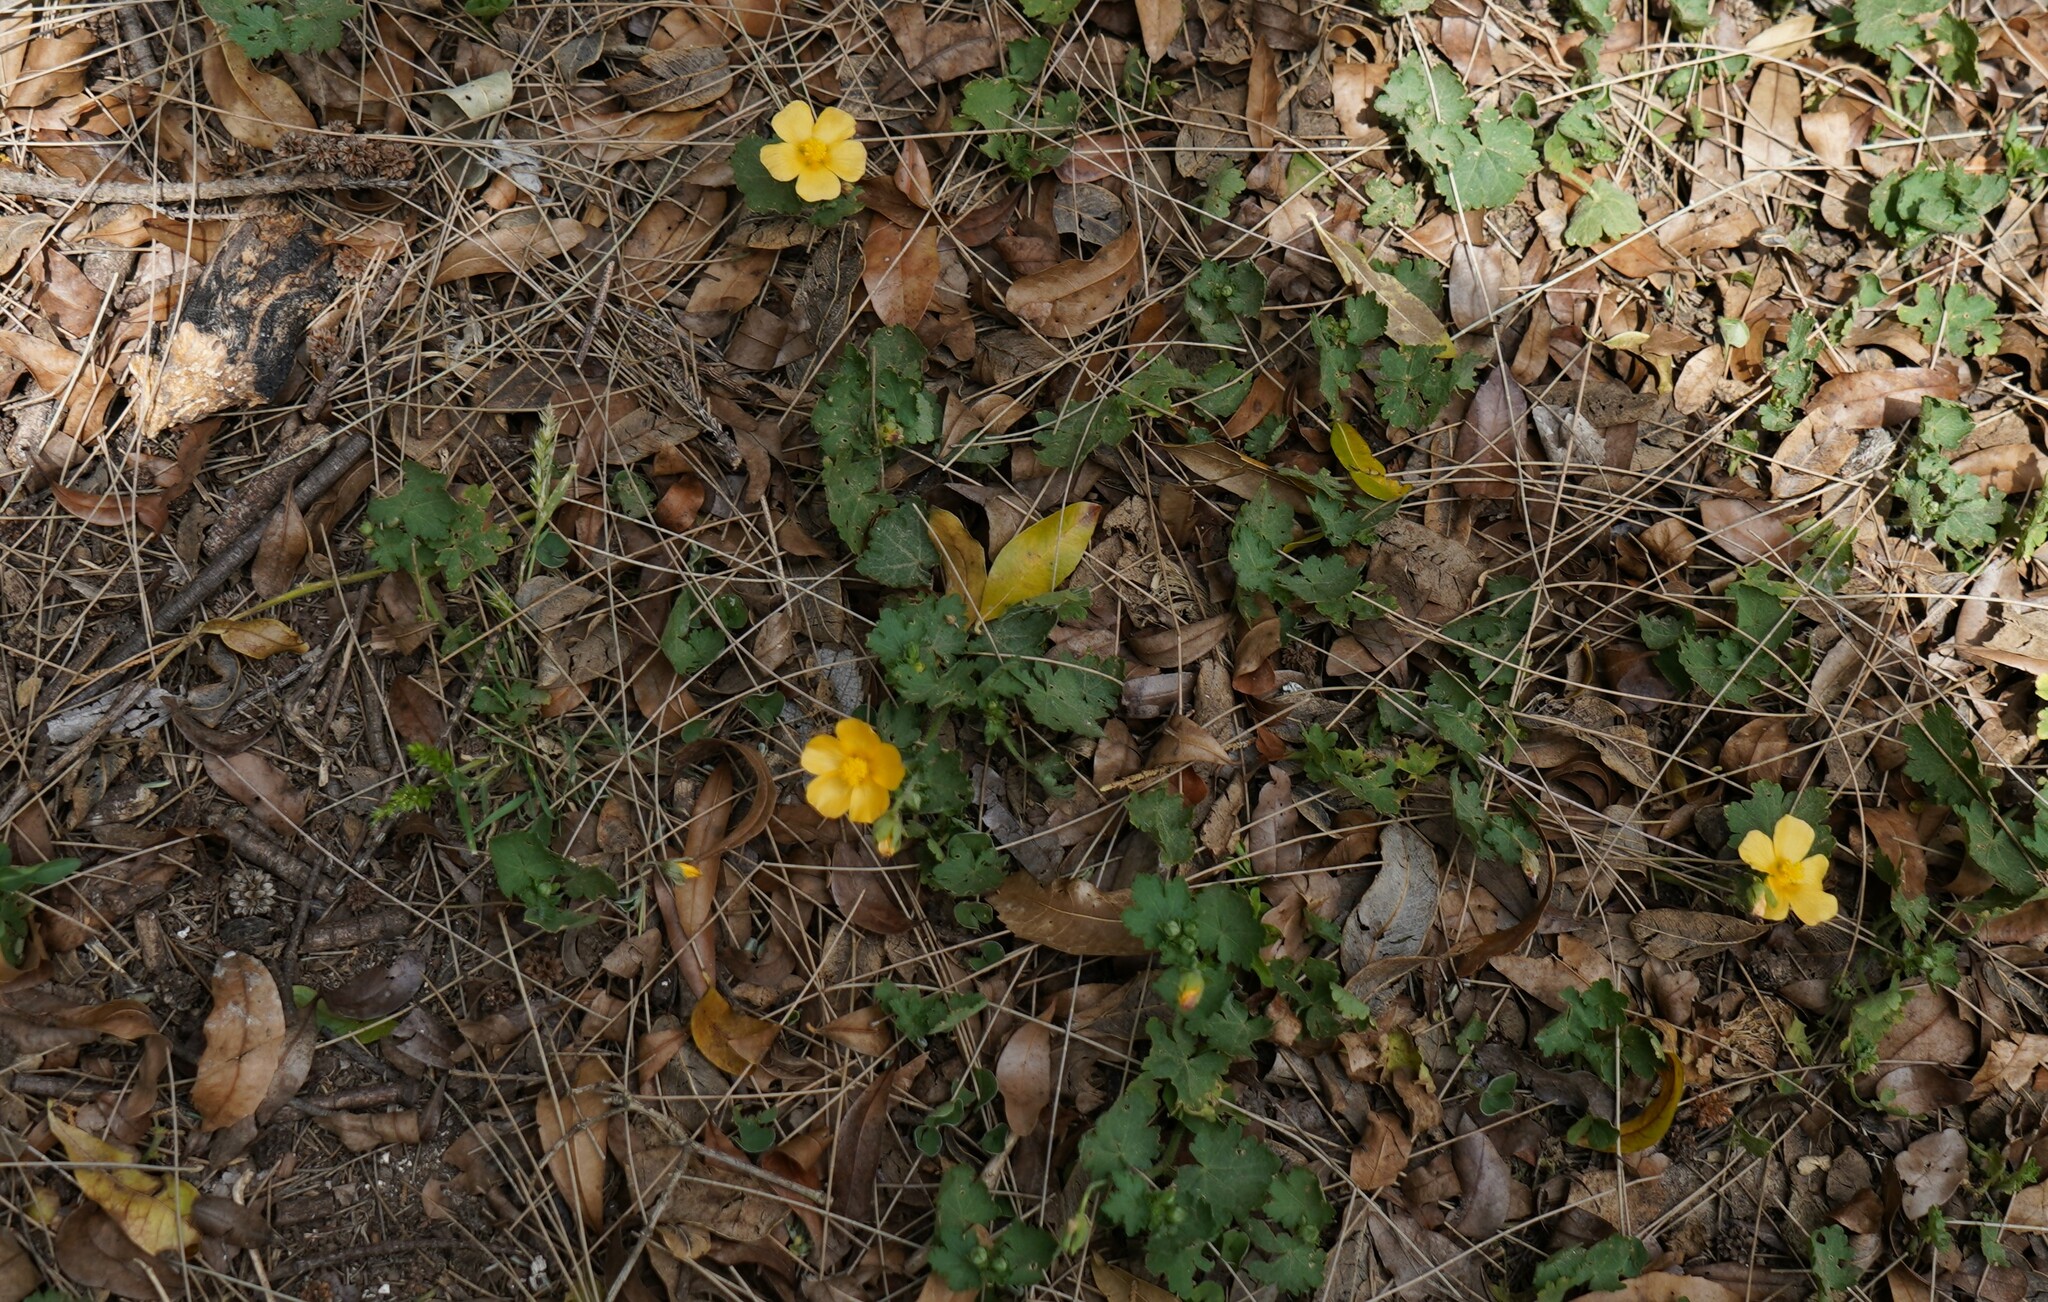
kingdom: Plantae
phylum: Tracheophyta
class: Magnoliopsida
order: Malvales
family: Malvaceae
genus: Modiolastrum
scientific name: Modiolastrum malvifolium
